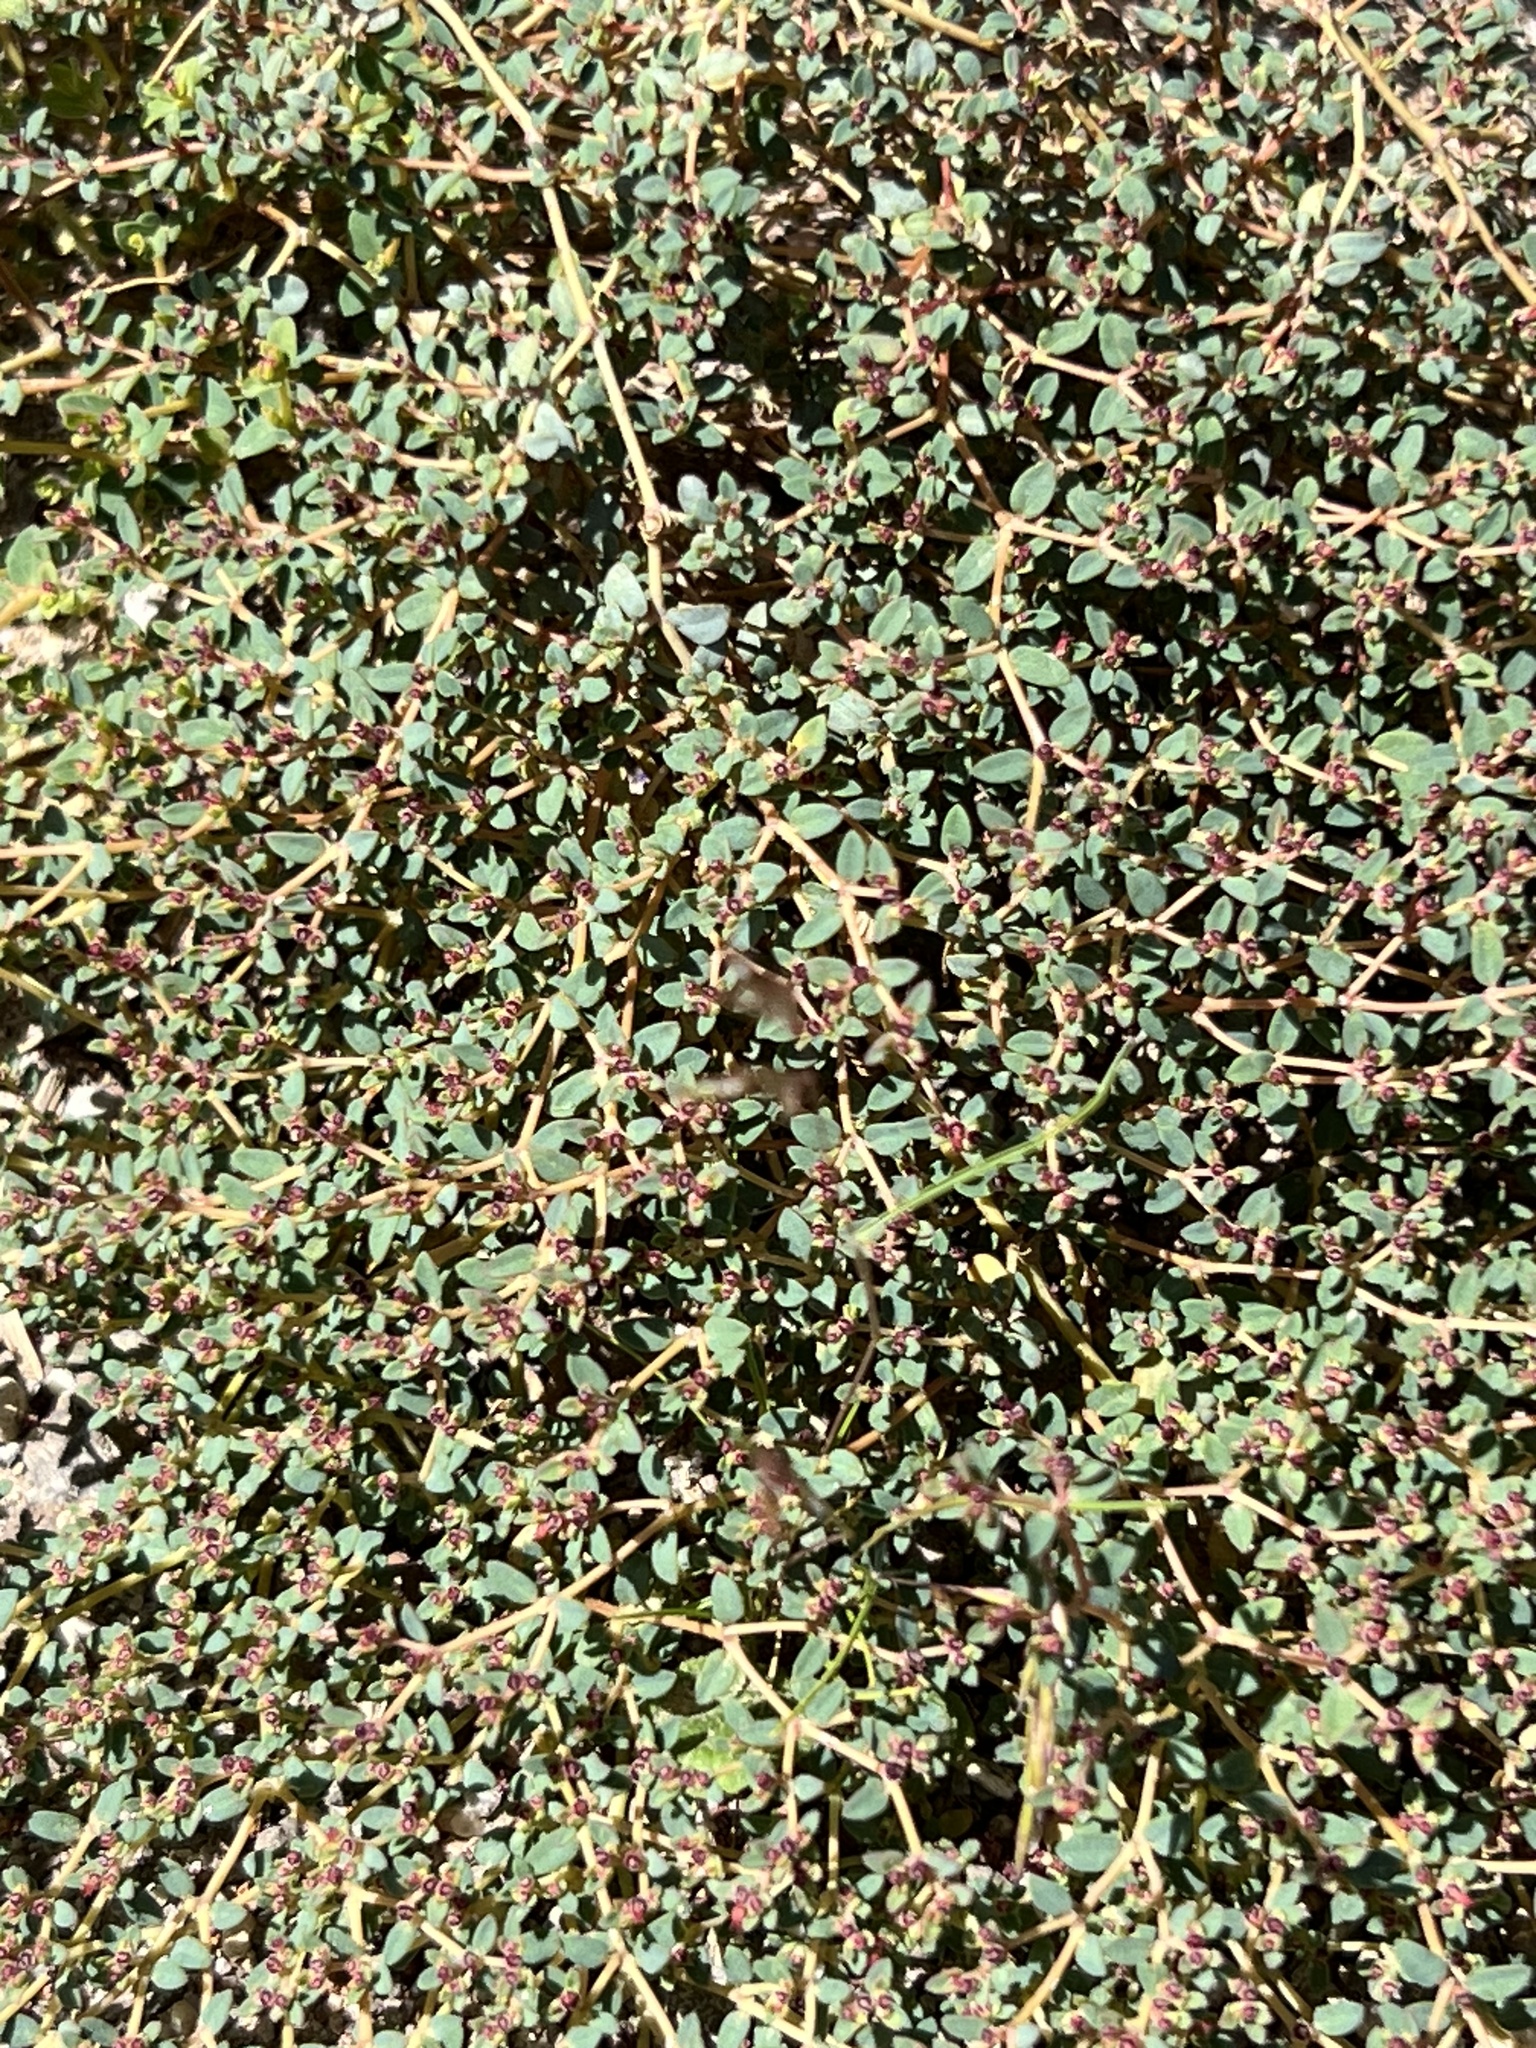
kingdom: Plantae
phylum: Tracheophyta
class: Magnoliopsida
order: Malpighiales
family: Euphorbiaceae
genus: Euphorbia
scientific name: Euphorbia polycarpa
